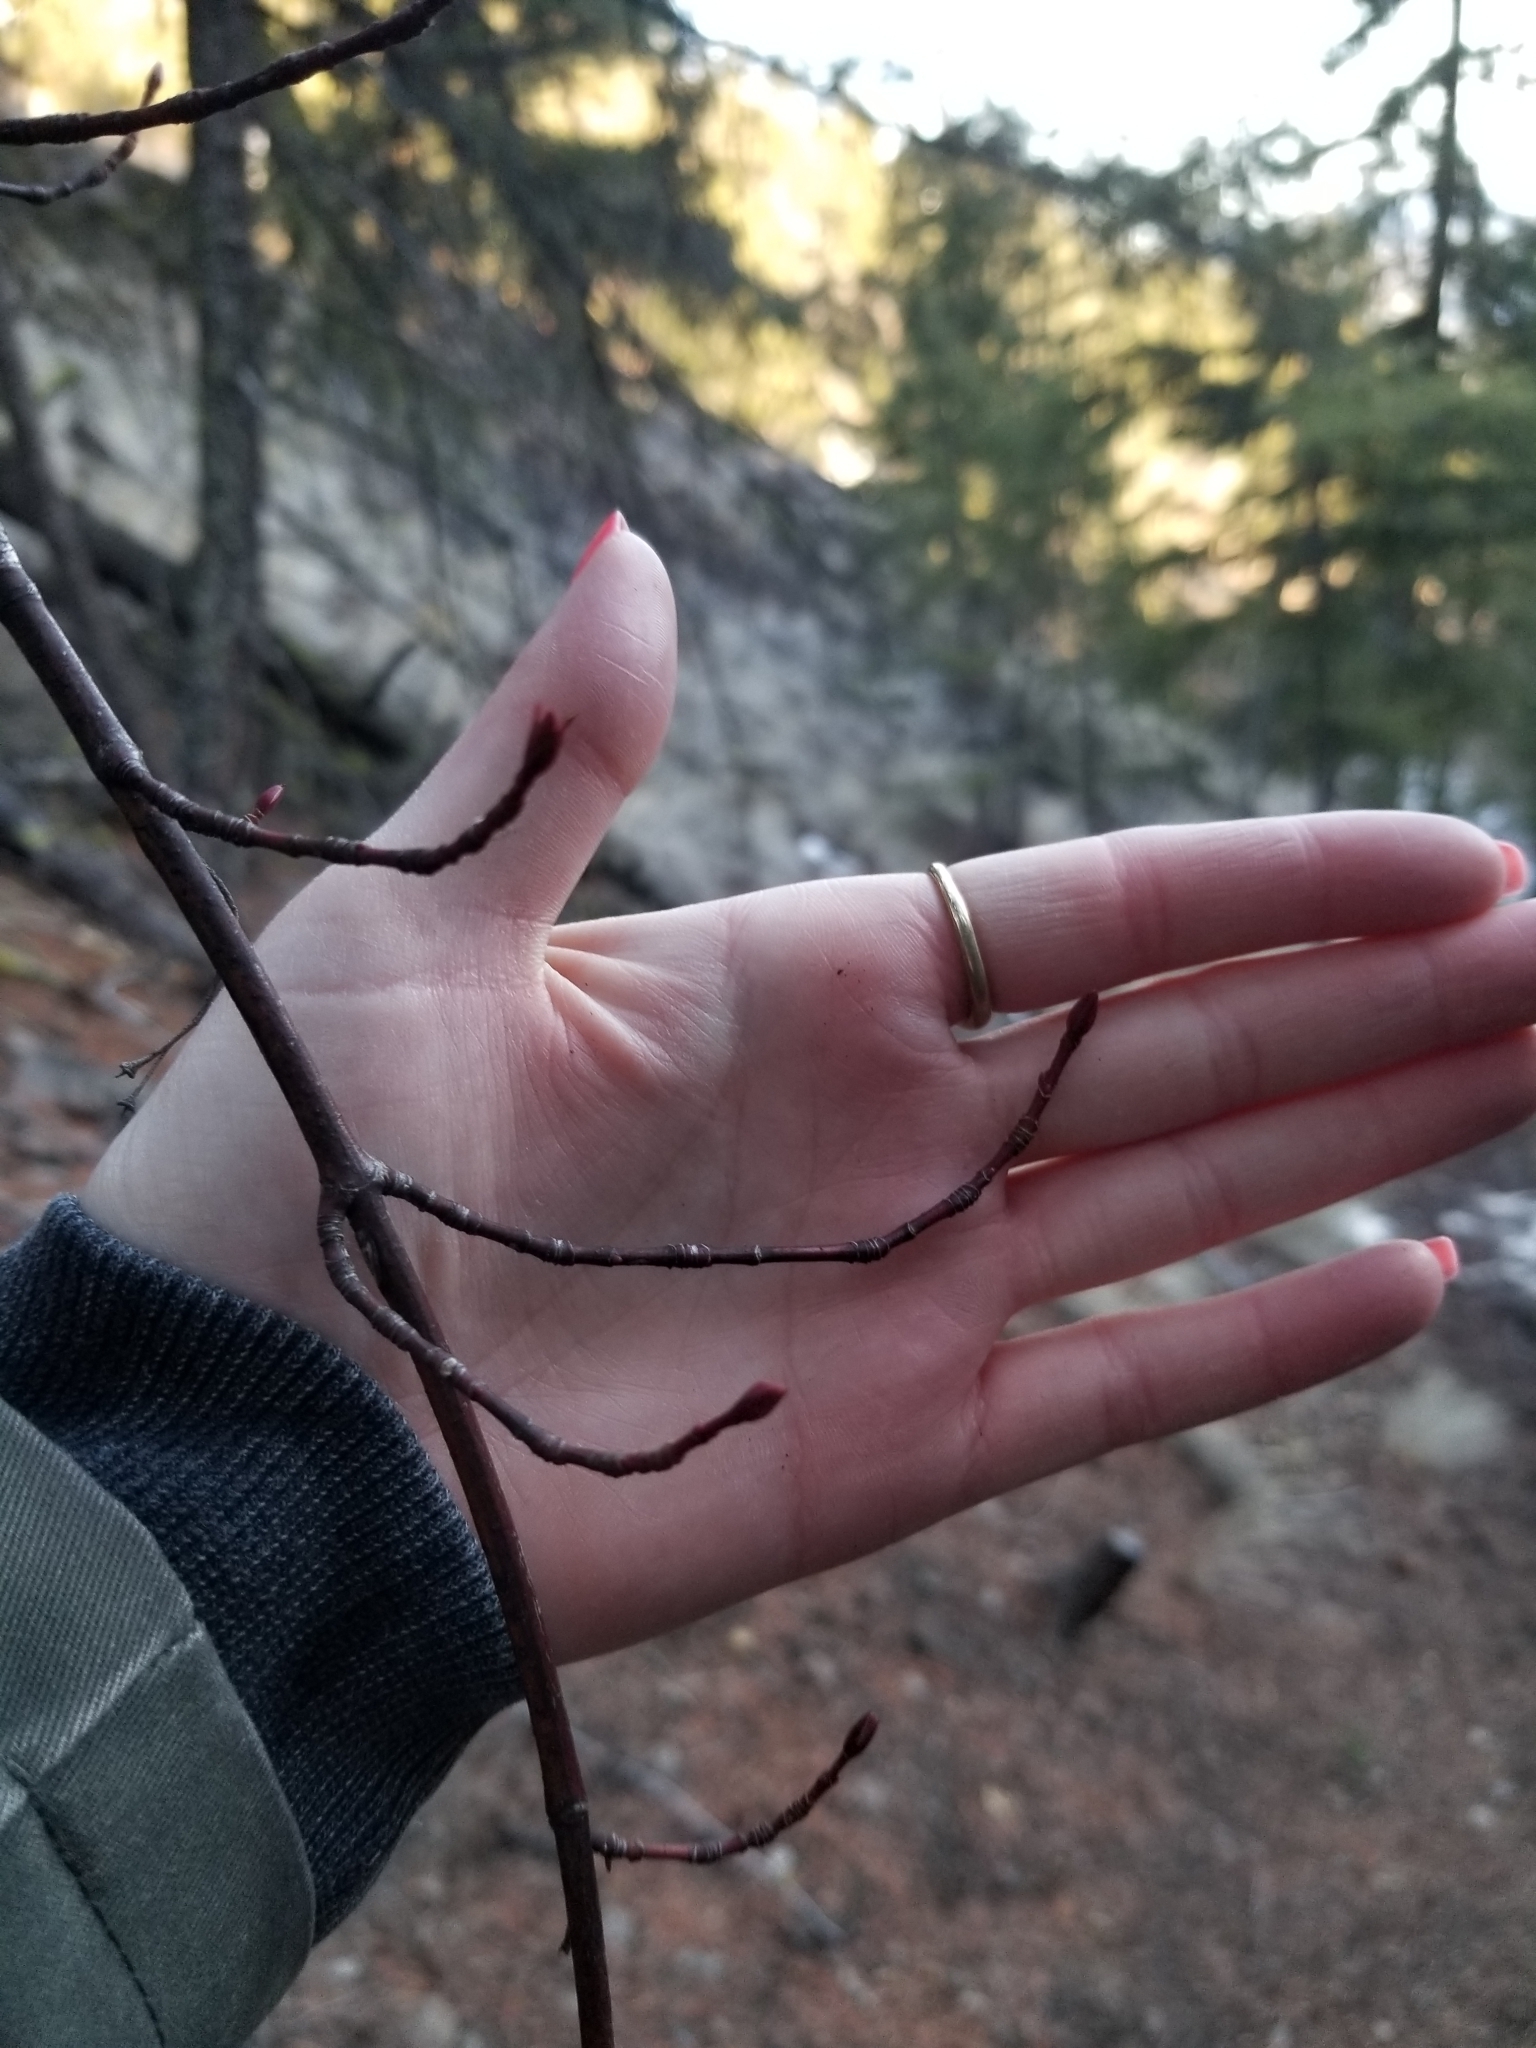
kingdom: Plantae
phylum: Tracheophyta
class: Magnoliopsida
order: Sapindales
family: Sapindaceae
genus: Acer
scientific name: Acer glabrum
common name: Rocky mountain maple
